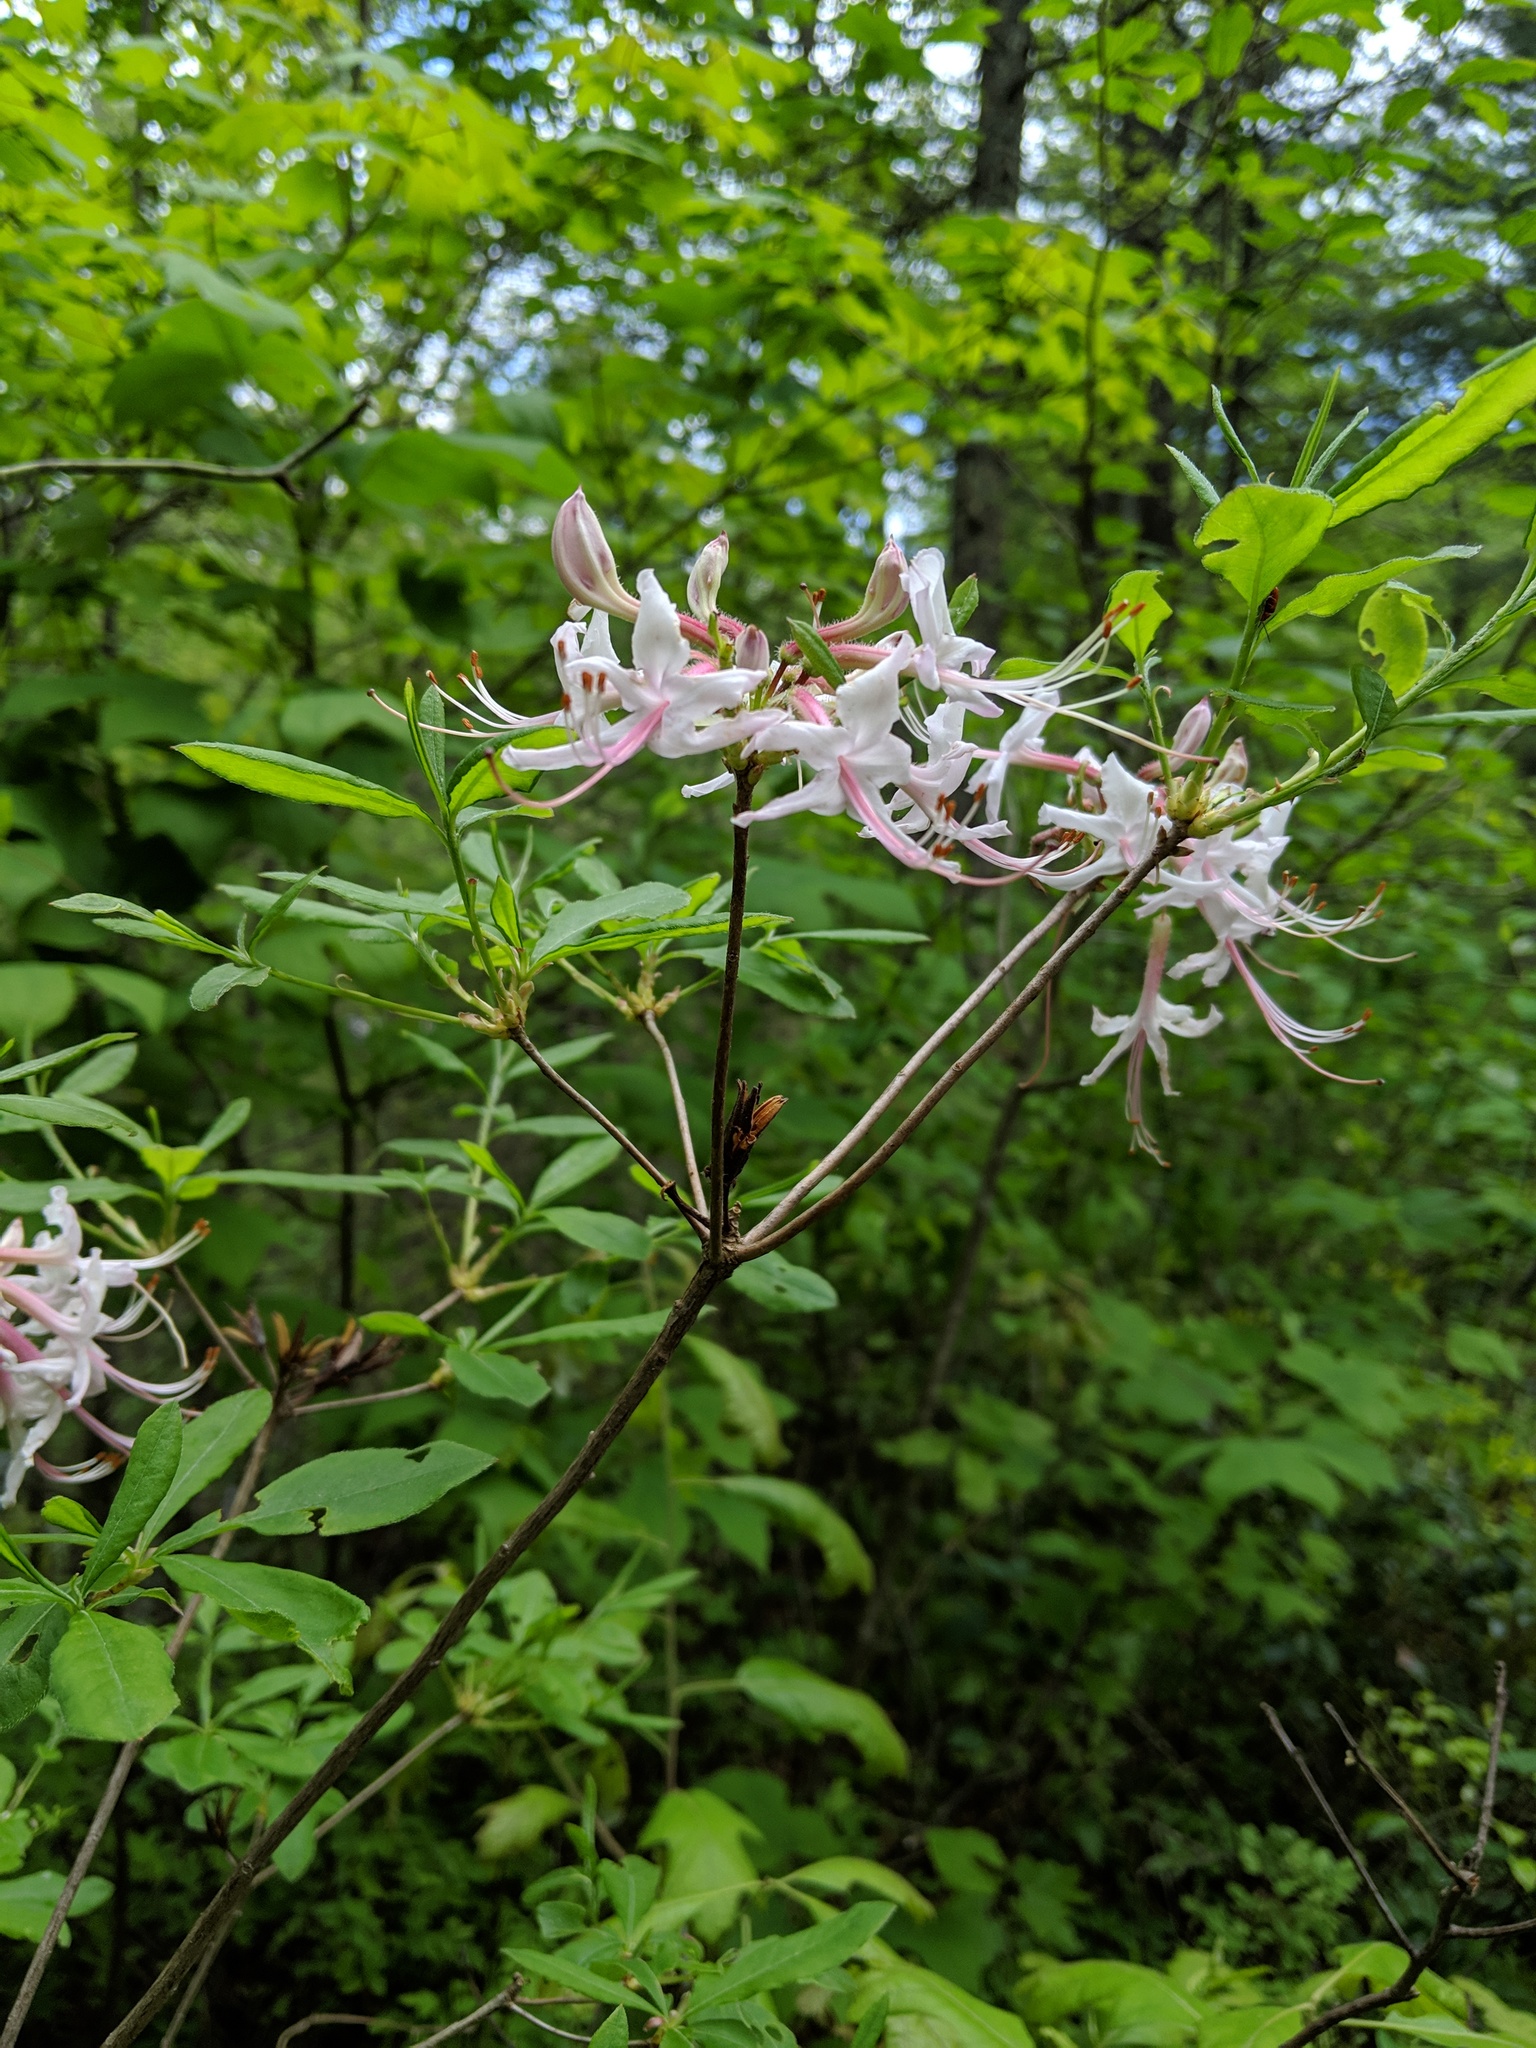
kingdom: Plantae
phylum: Tracheophyta
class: Magnoliopsida
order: Ericales
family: Ericaceae
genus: Rhododendron
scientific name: Rhododendron periclymenoides
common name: Election-pink
